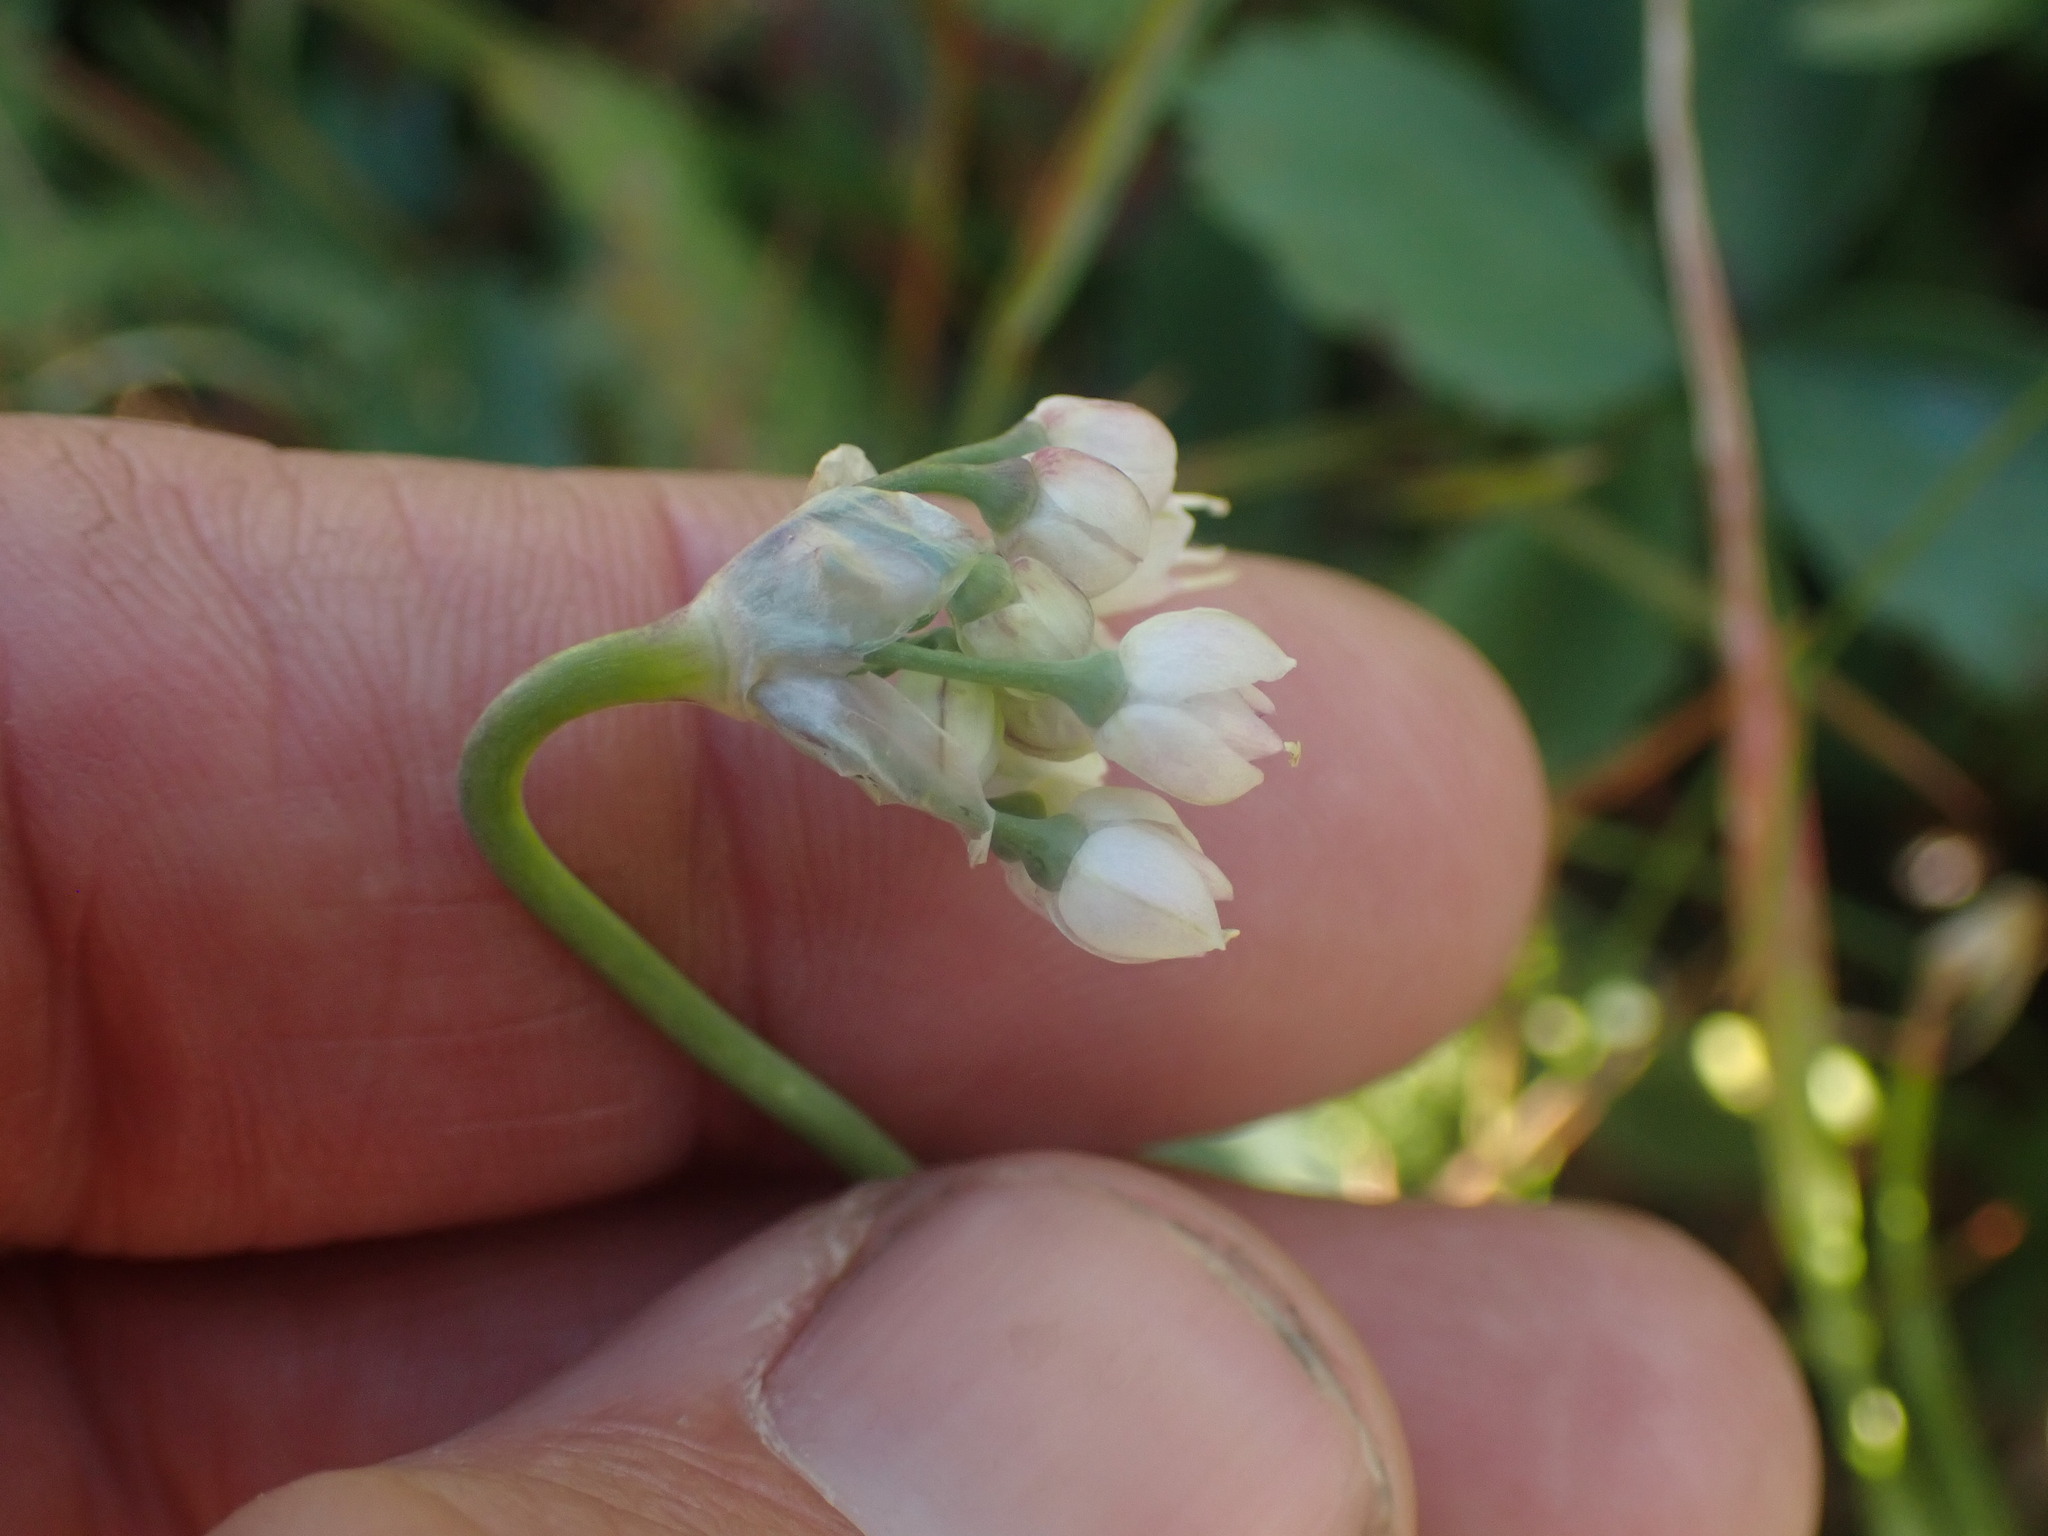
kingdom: Plantae
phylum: Tracheophyta
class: Liliopsida
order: Asparagales
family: Amaryllidaceae
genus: Allium
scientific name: Allium cernuum
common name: Nodding onion
